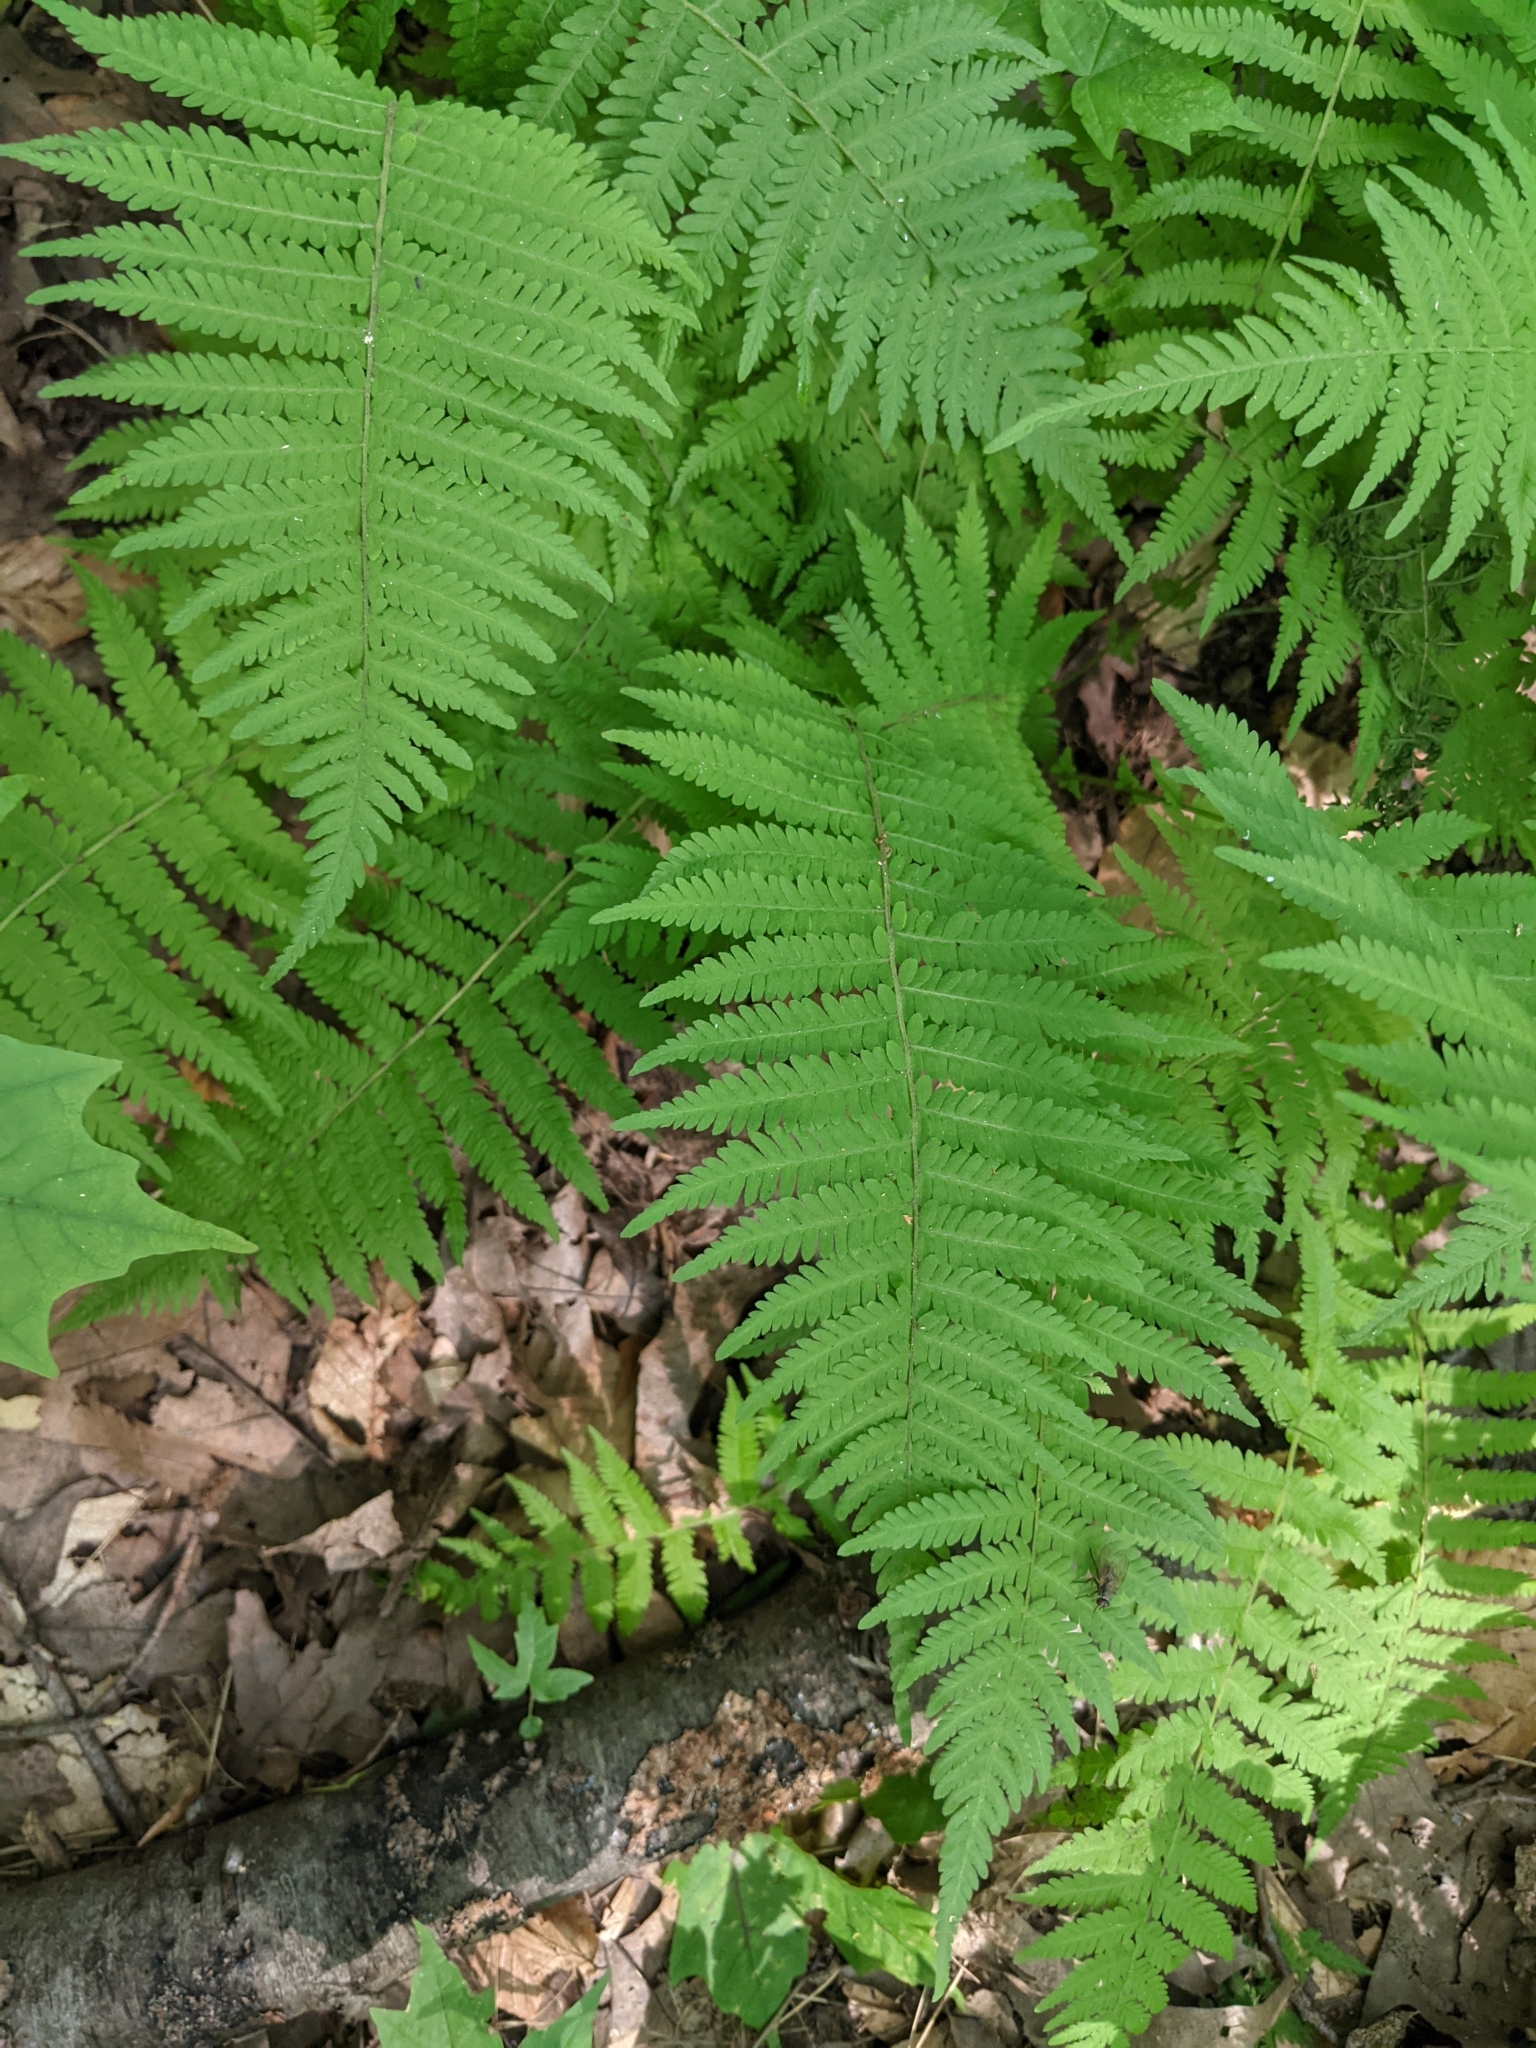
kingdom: Plantae
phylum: Tracheophyta
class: Polypodiopsida
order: Polypodiales
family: Thelypteridaceae
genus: Amauropelta
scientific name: Amauropelta noveboracensis
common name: New york fern
